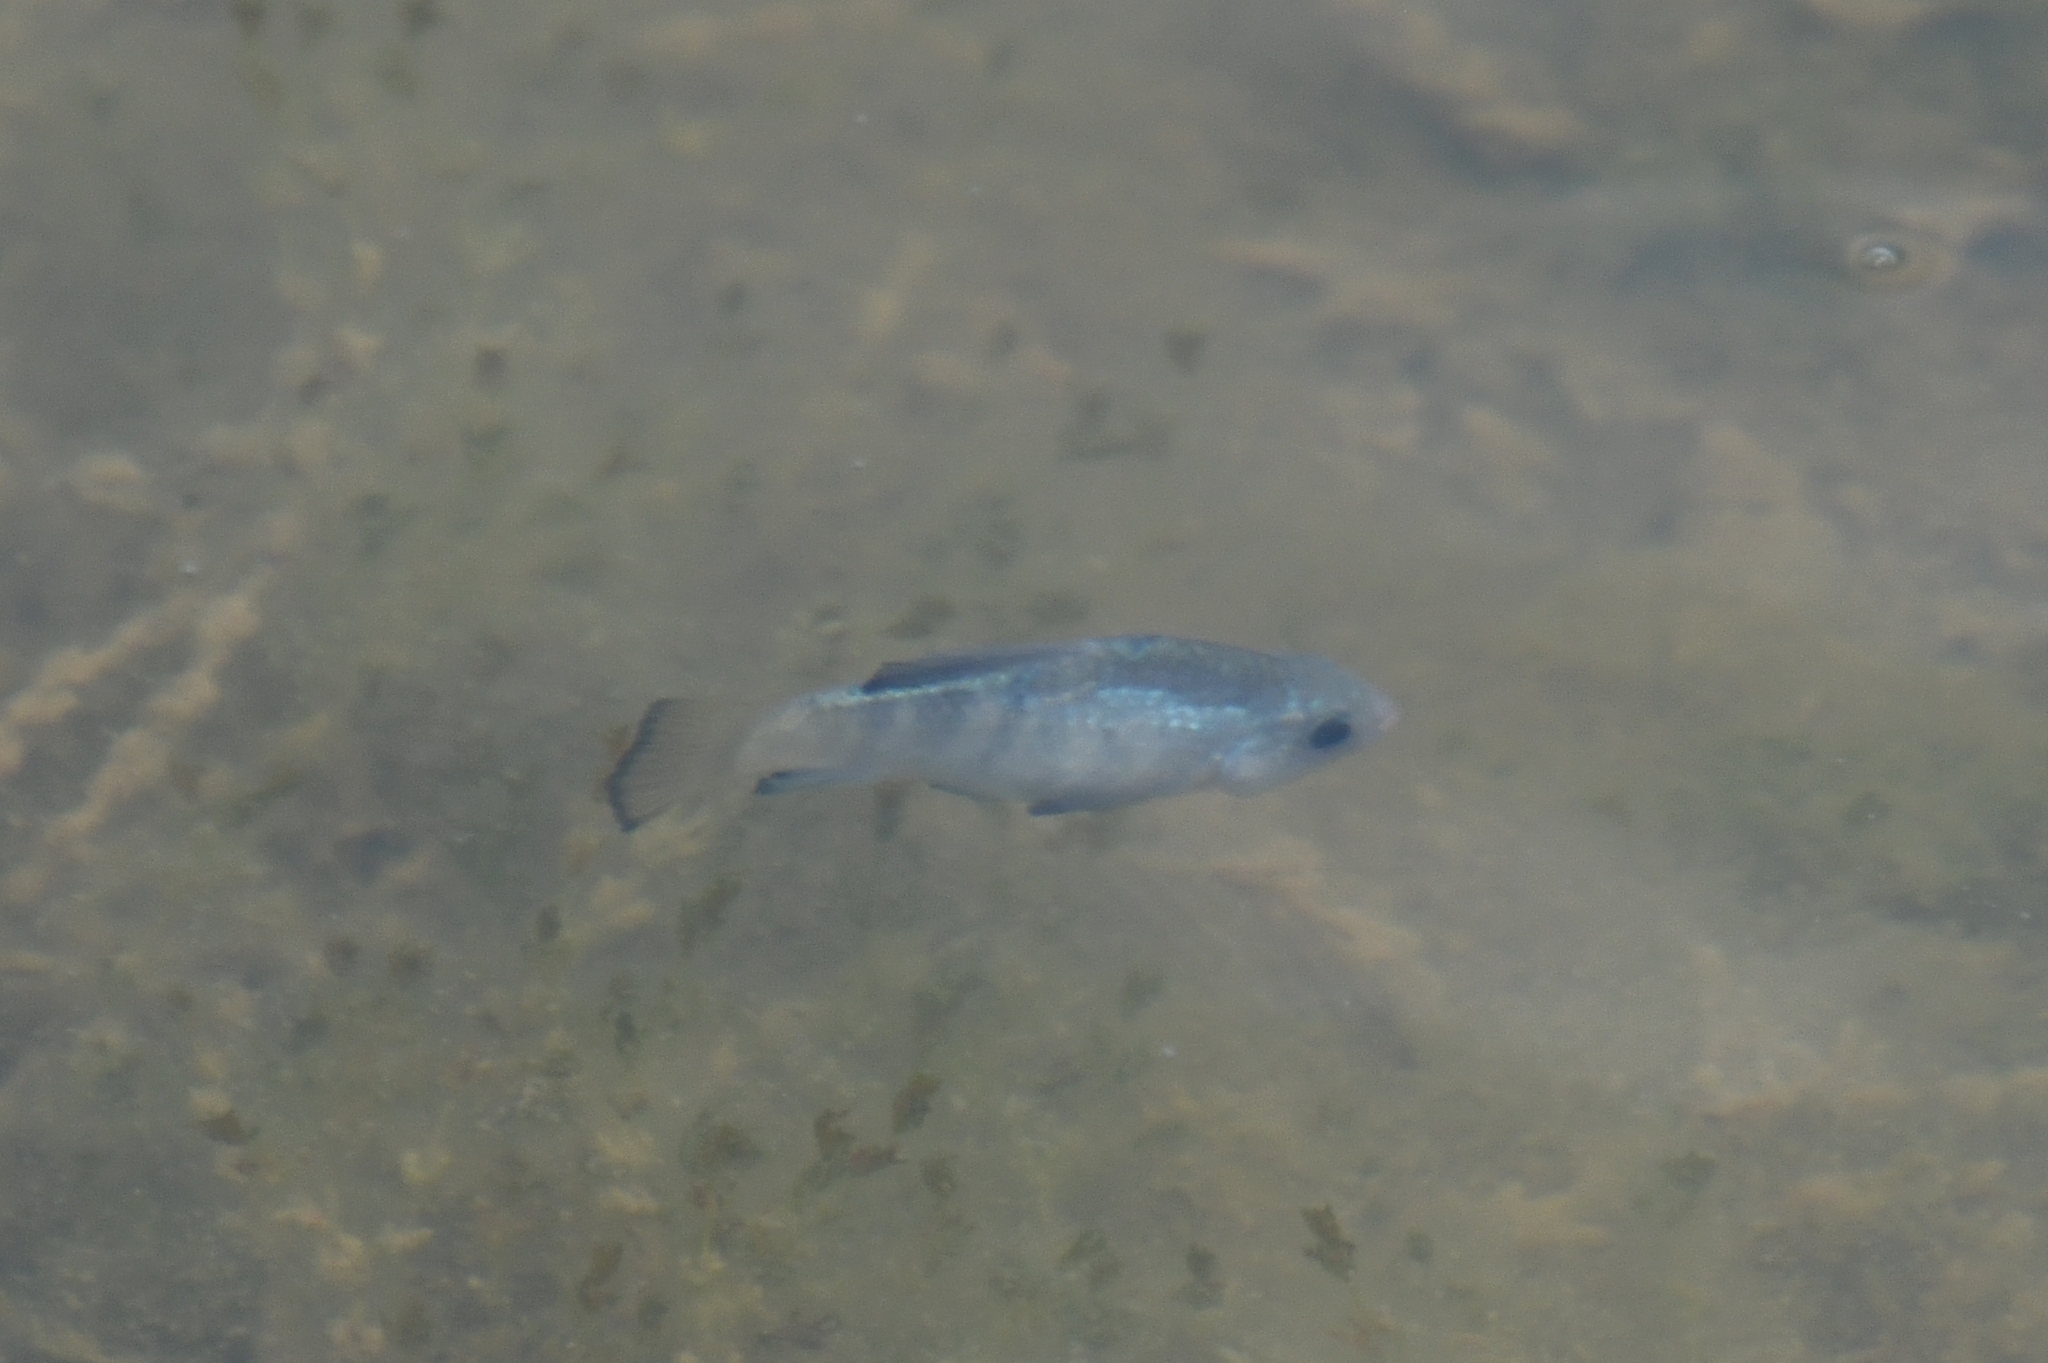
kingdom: Animalia
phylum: Chordata
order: Cyprinodontiformes
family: Cyprinodontidae
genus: Cyprinodon
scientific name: Cyprinodon macularius
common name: Desert pupfish
